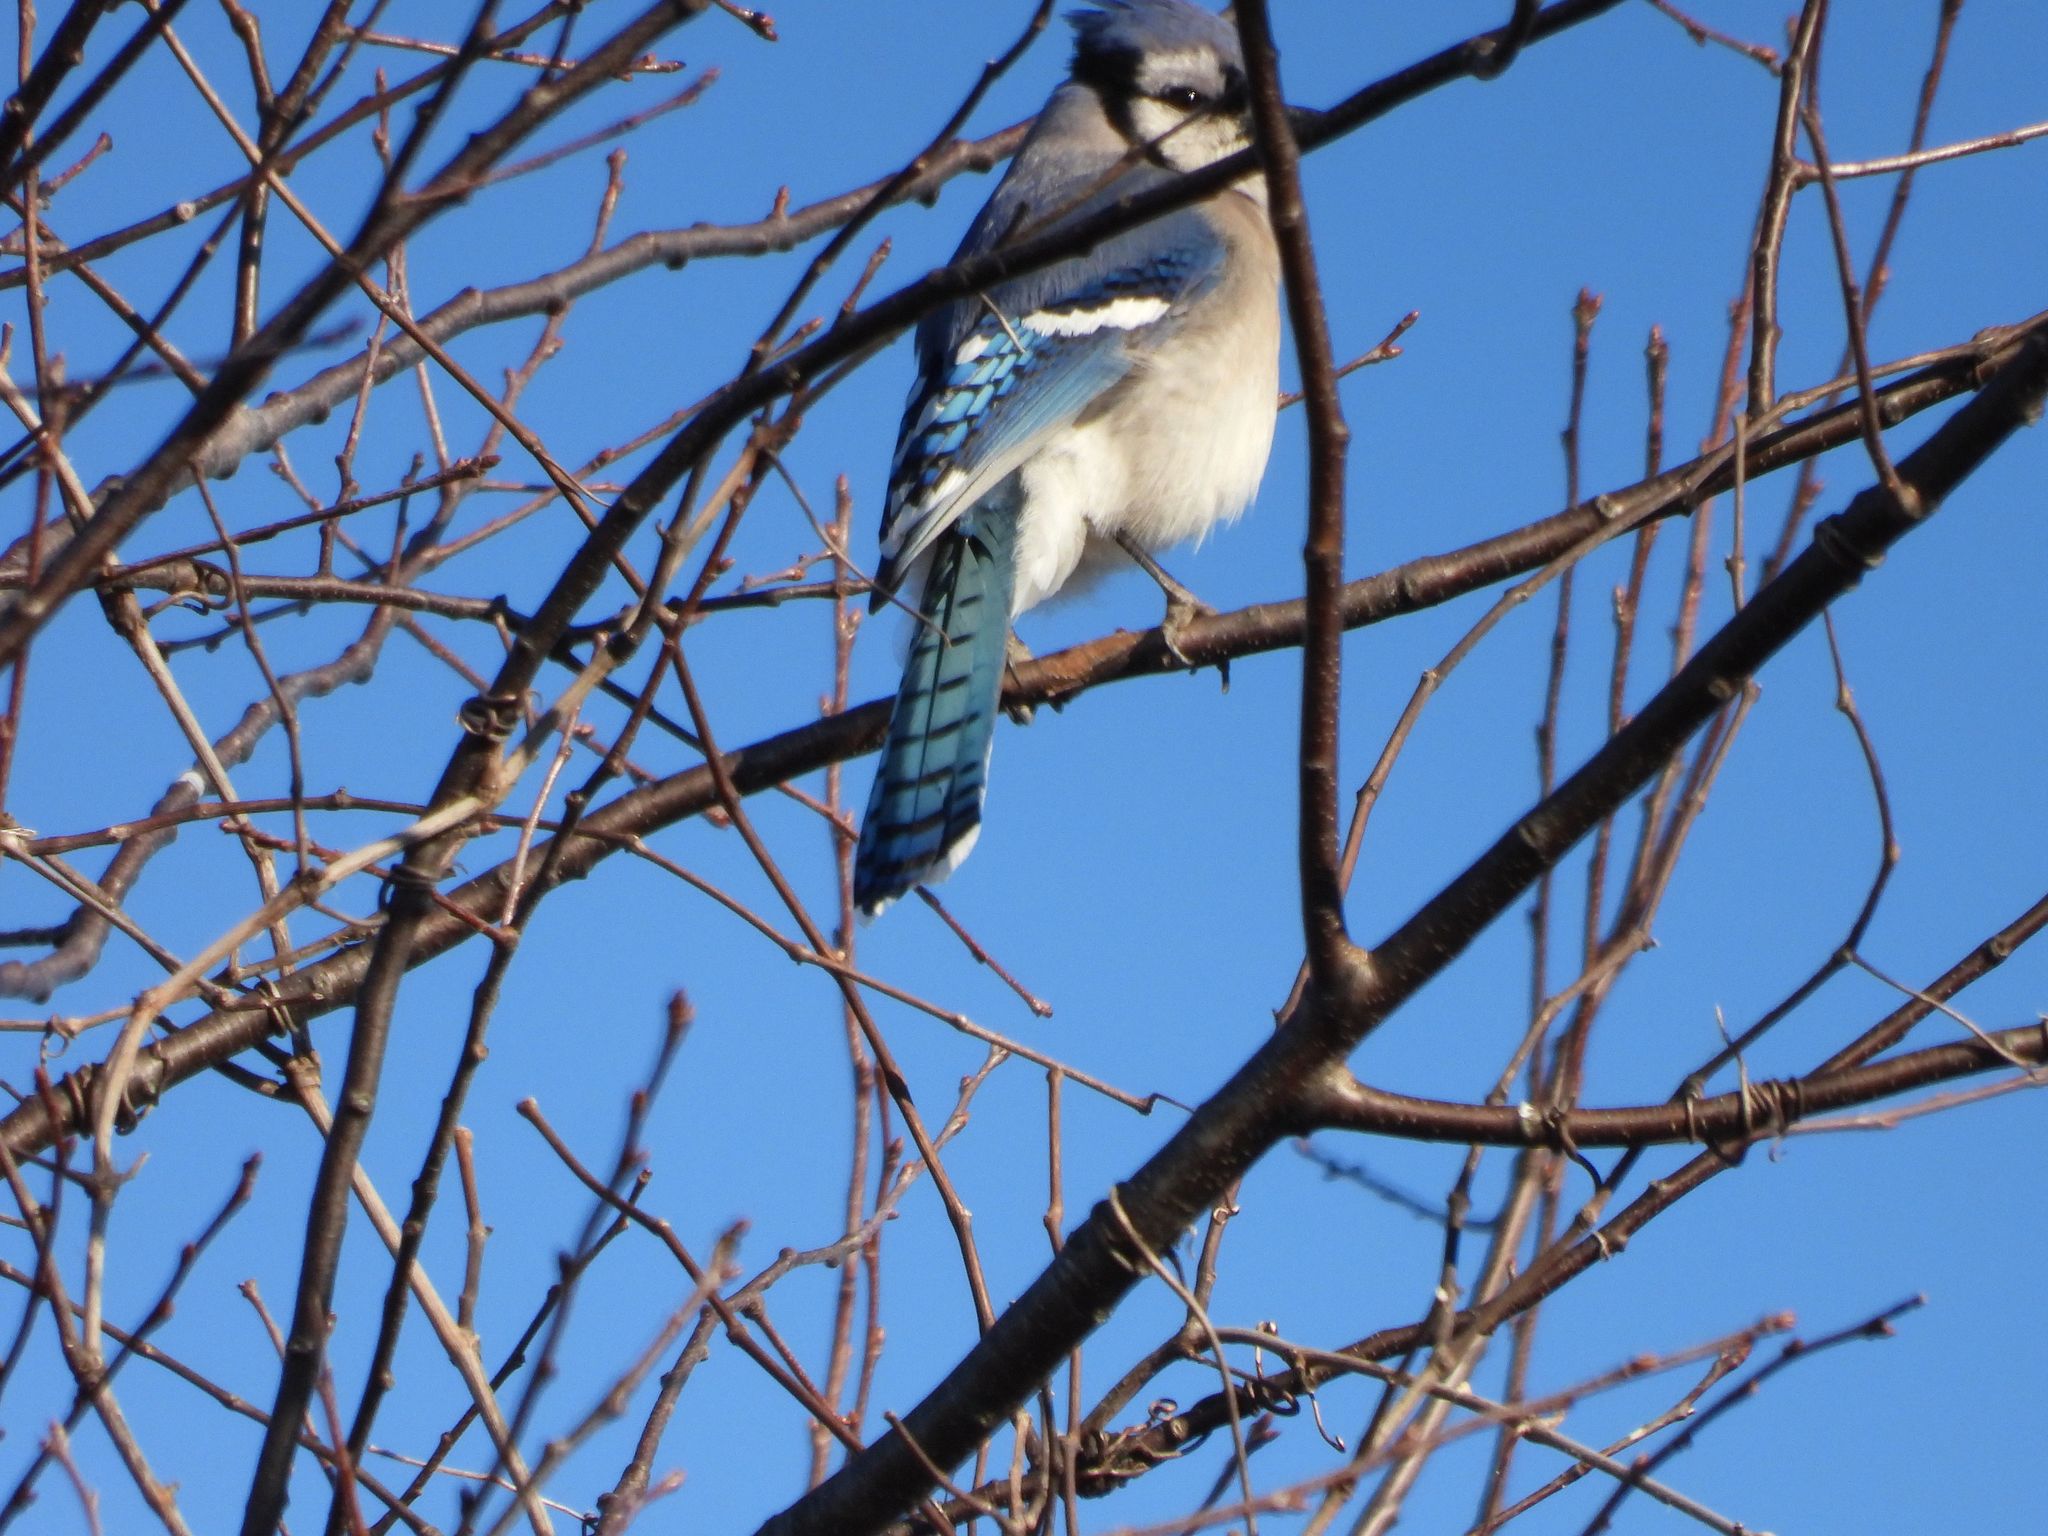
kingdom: Animalia
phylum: Chordata
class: Aves
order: Passeriformes
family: Corvidae
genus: Cyanocitta
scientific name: Cyanocitta cristata
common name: Blue jay
